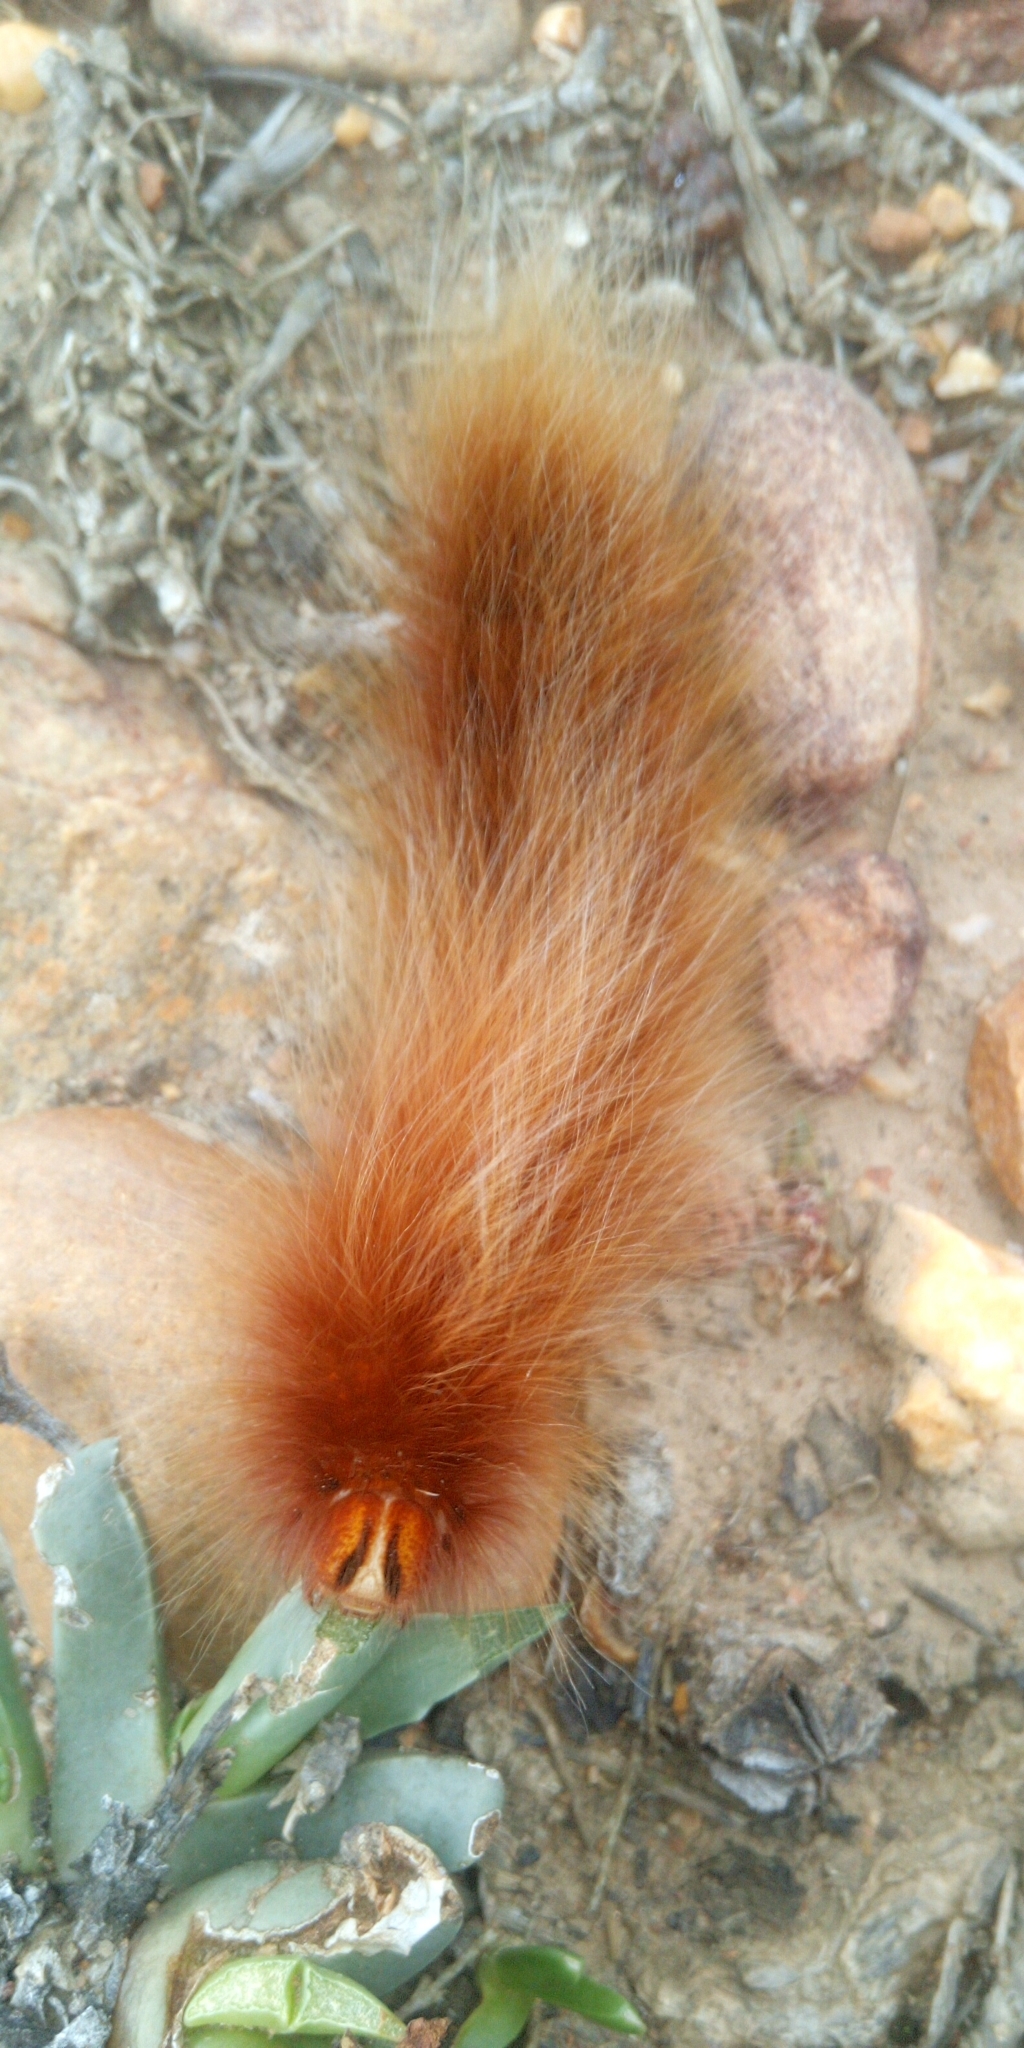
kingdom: Animalia
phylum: Arthropoda
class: Insecta
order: Lepidoptera
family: Lasiocampidae
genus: Mesocelis
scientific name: Mesocelis monticola
